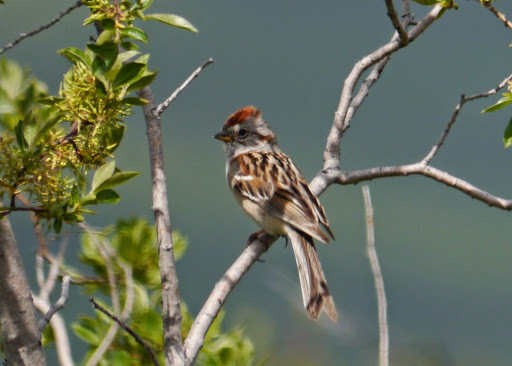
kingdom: Animalia
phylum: Chordata
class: Aves
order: Passeriformes
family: Passerellidae
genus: Spizelloides
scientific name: Spizelloides arborea
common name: American tree sparrow
